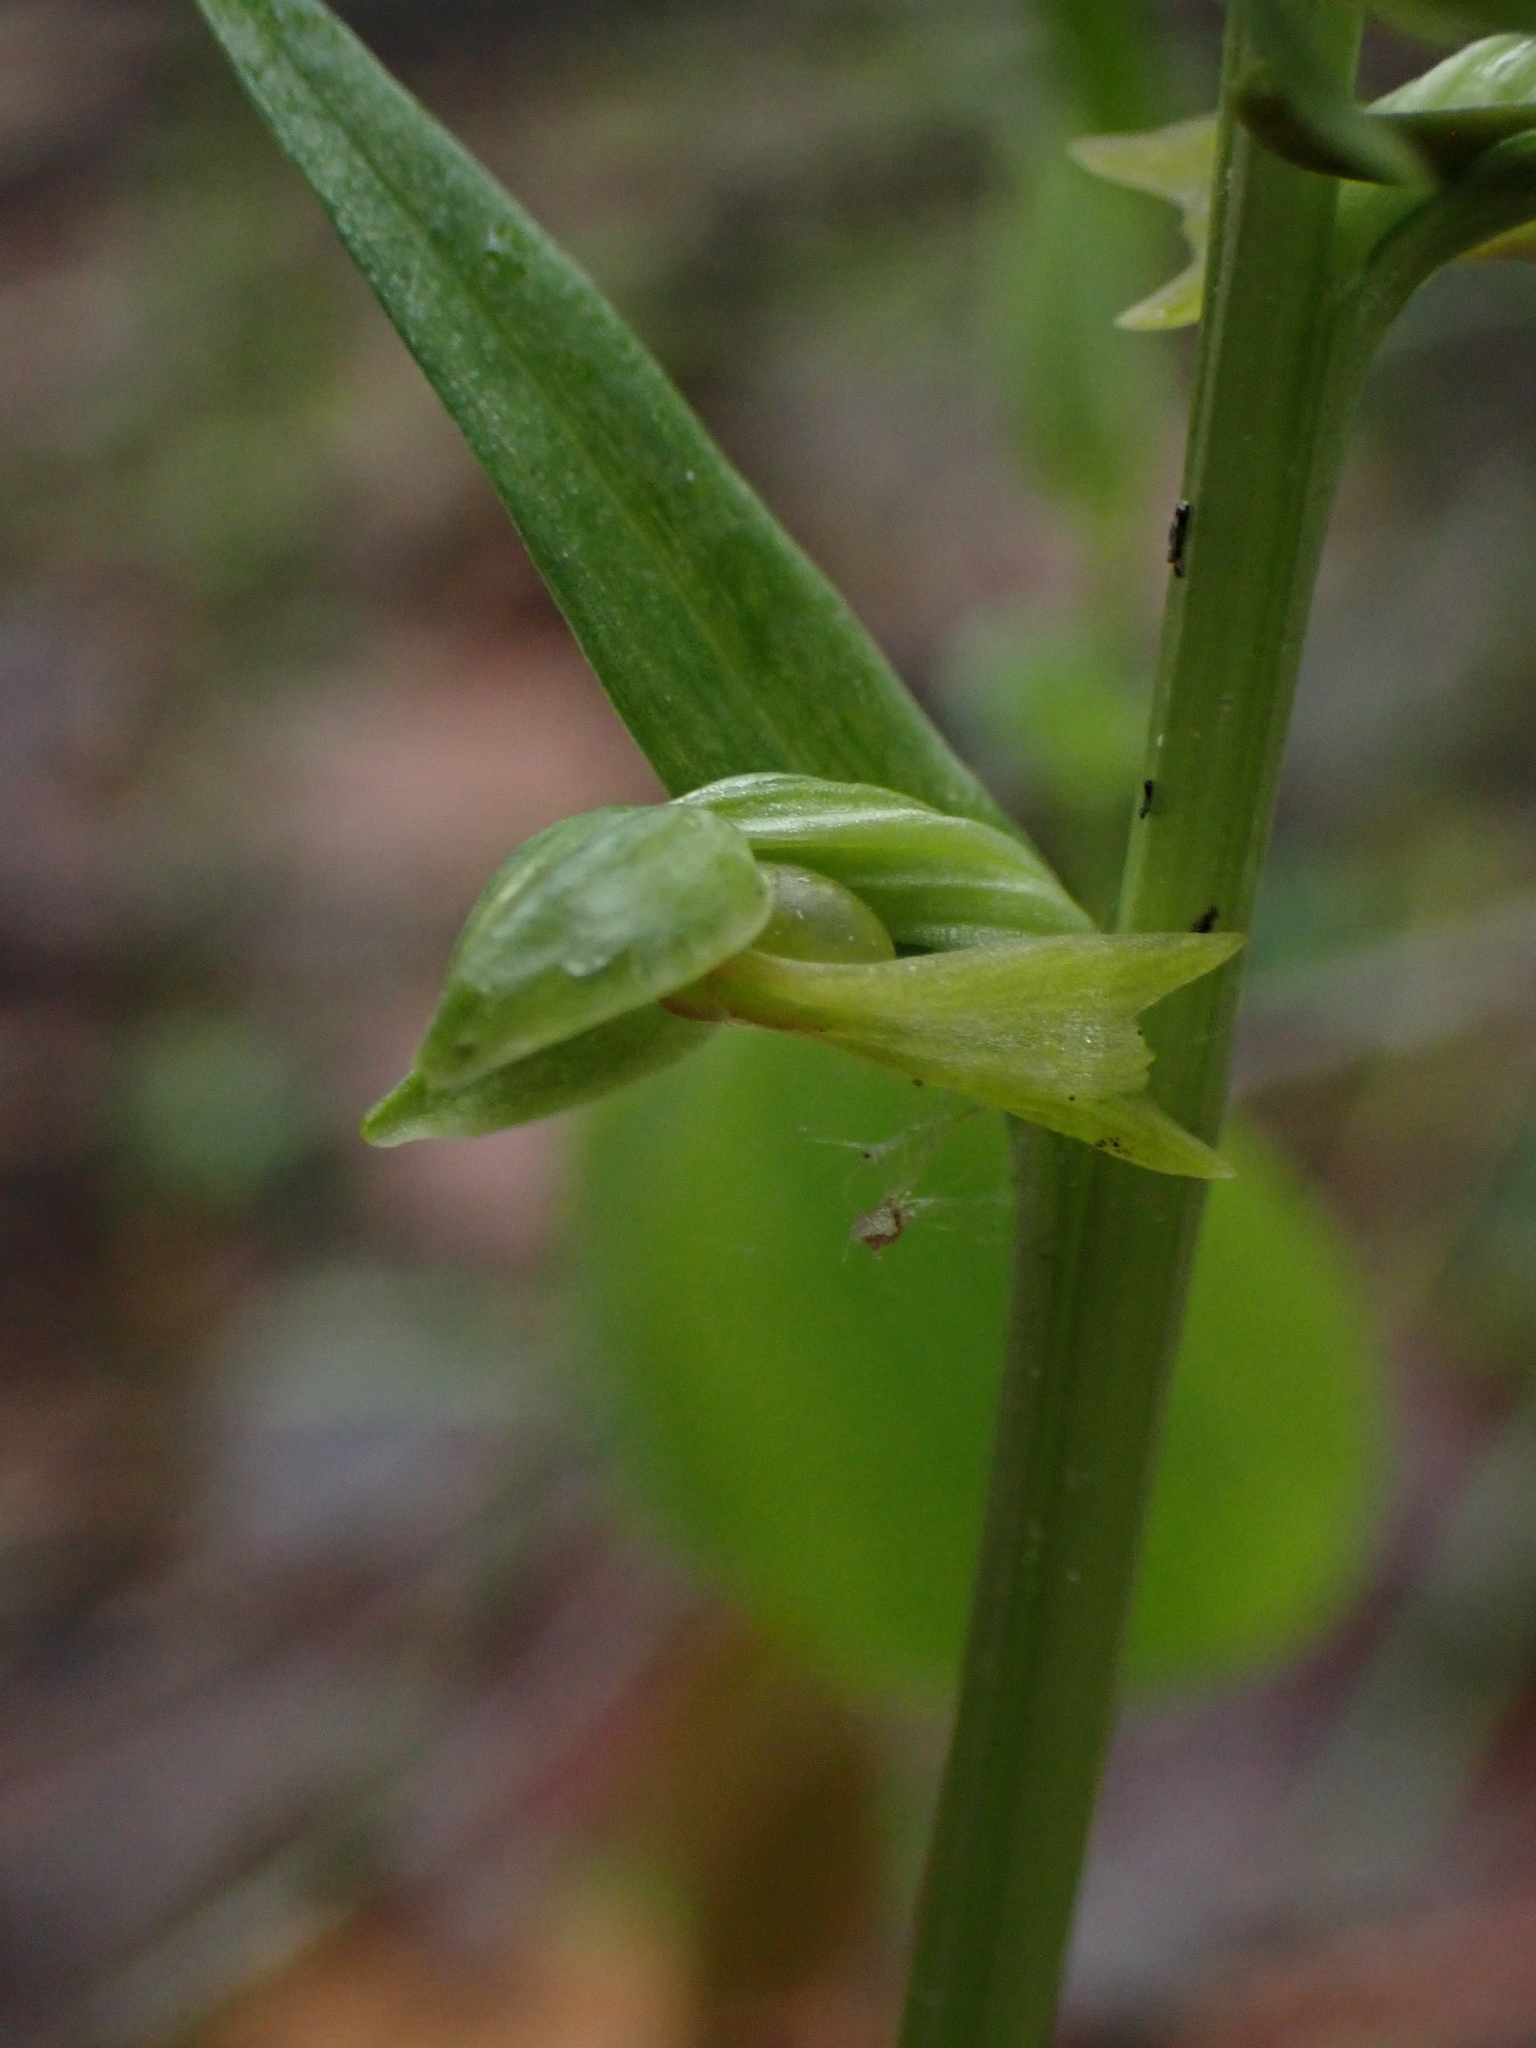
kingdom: Plantae
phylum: Tracheophyta
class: Liliopsida
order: Asparagales
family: Orchidaceae
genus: Dactylorhiza
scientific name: Dactylorhiza viridis
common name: Longbract frog orchid
